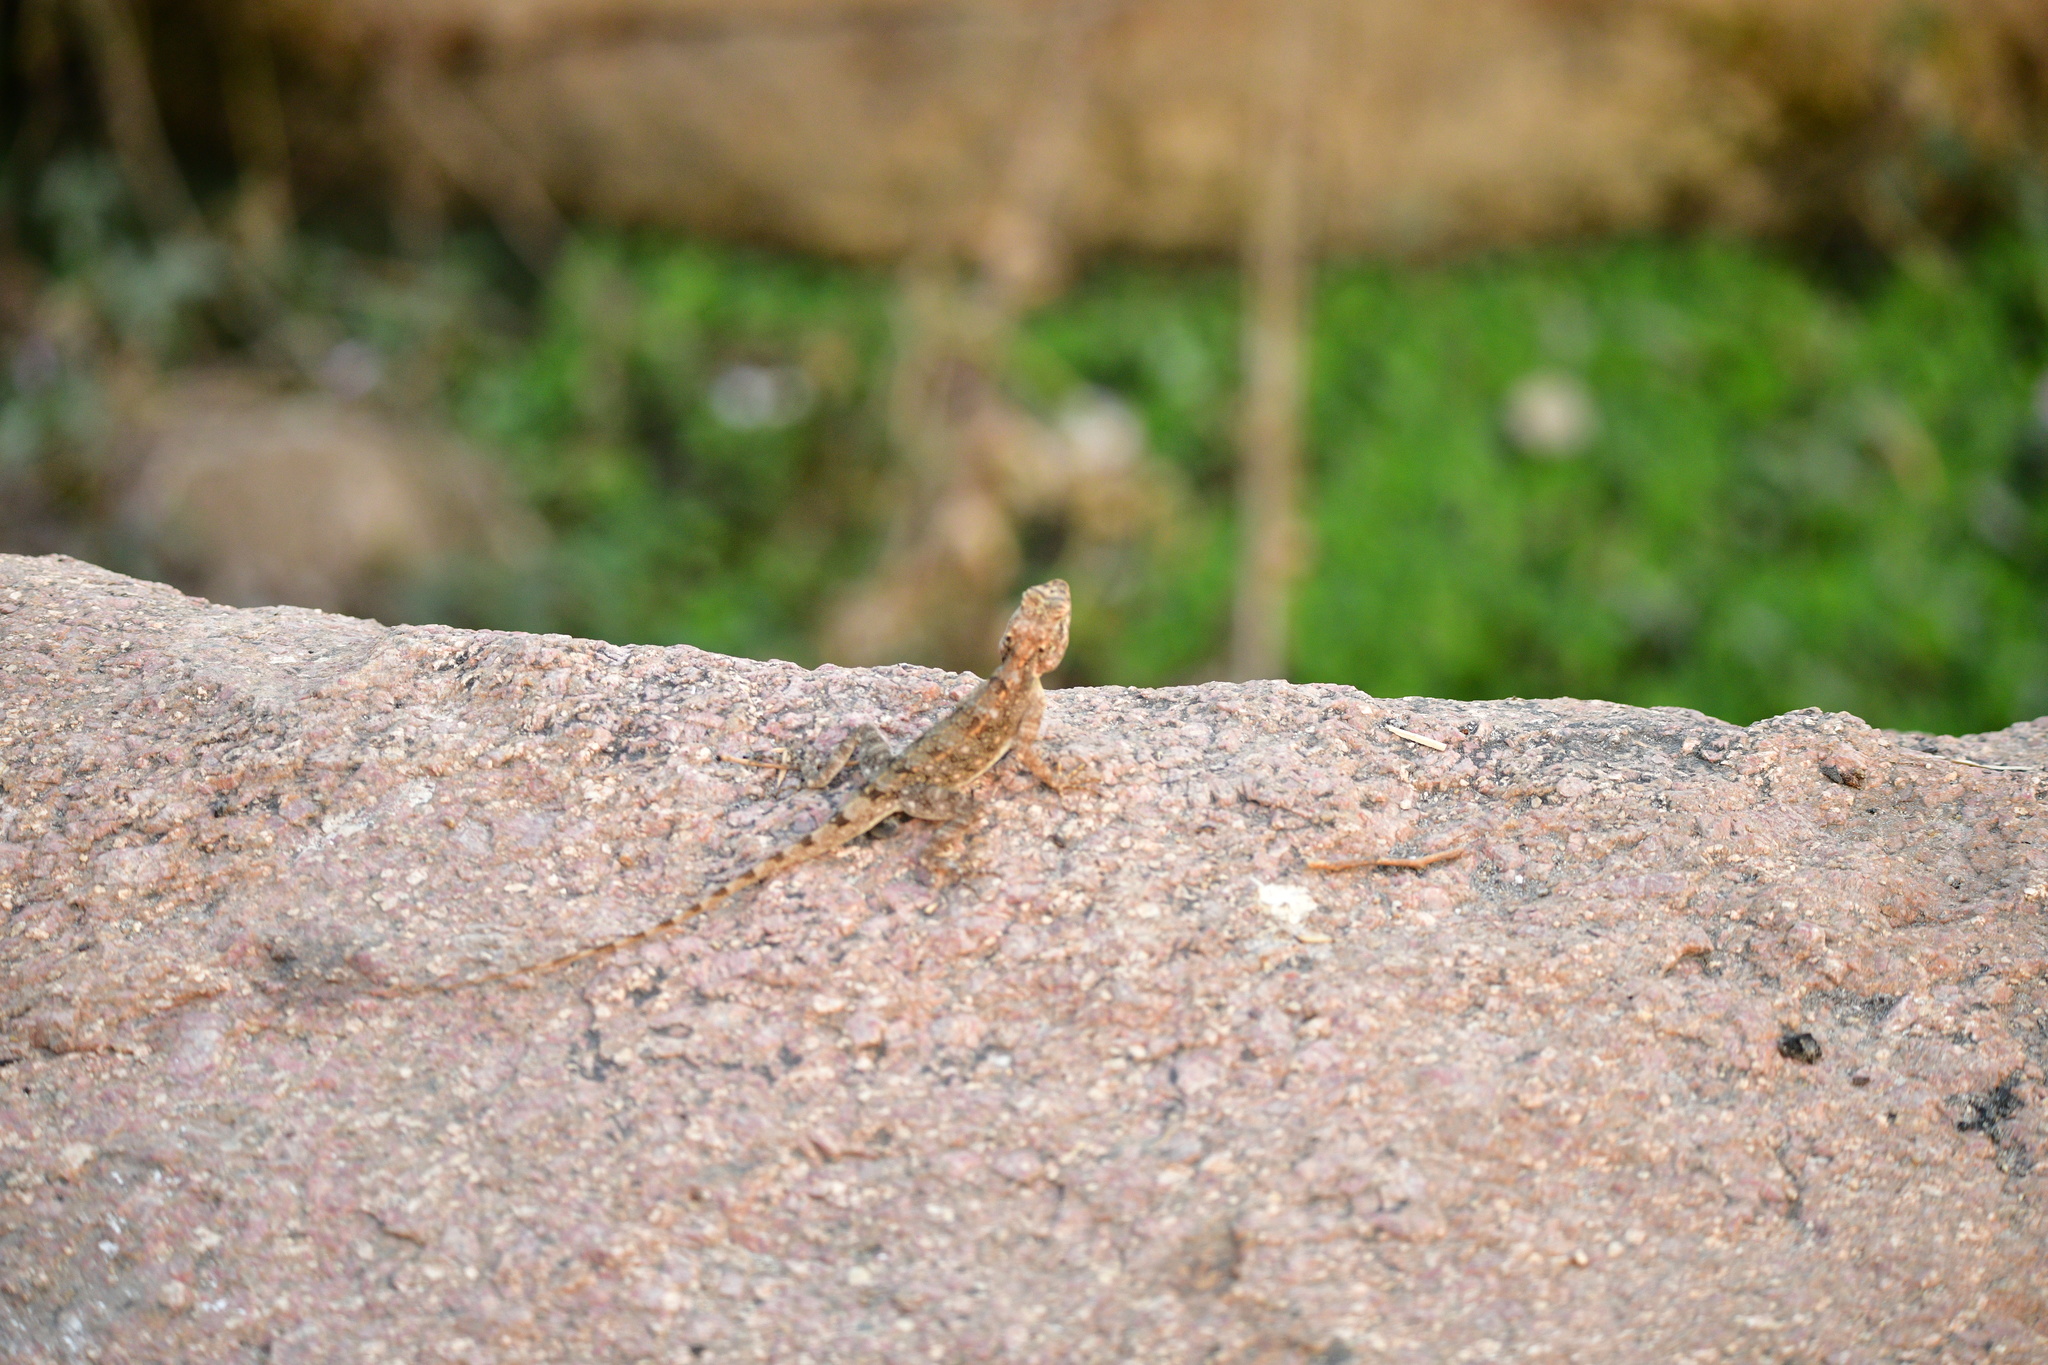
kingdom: Animalia
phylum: Chordata
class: Squamata
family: Agamidae
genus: Psammophilus
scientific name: Psammophilus dorsalis
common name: South indian rock agama
